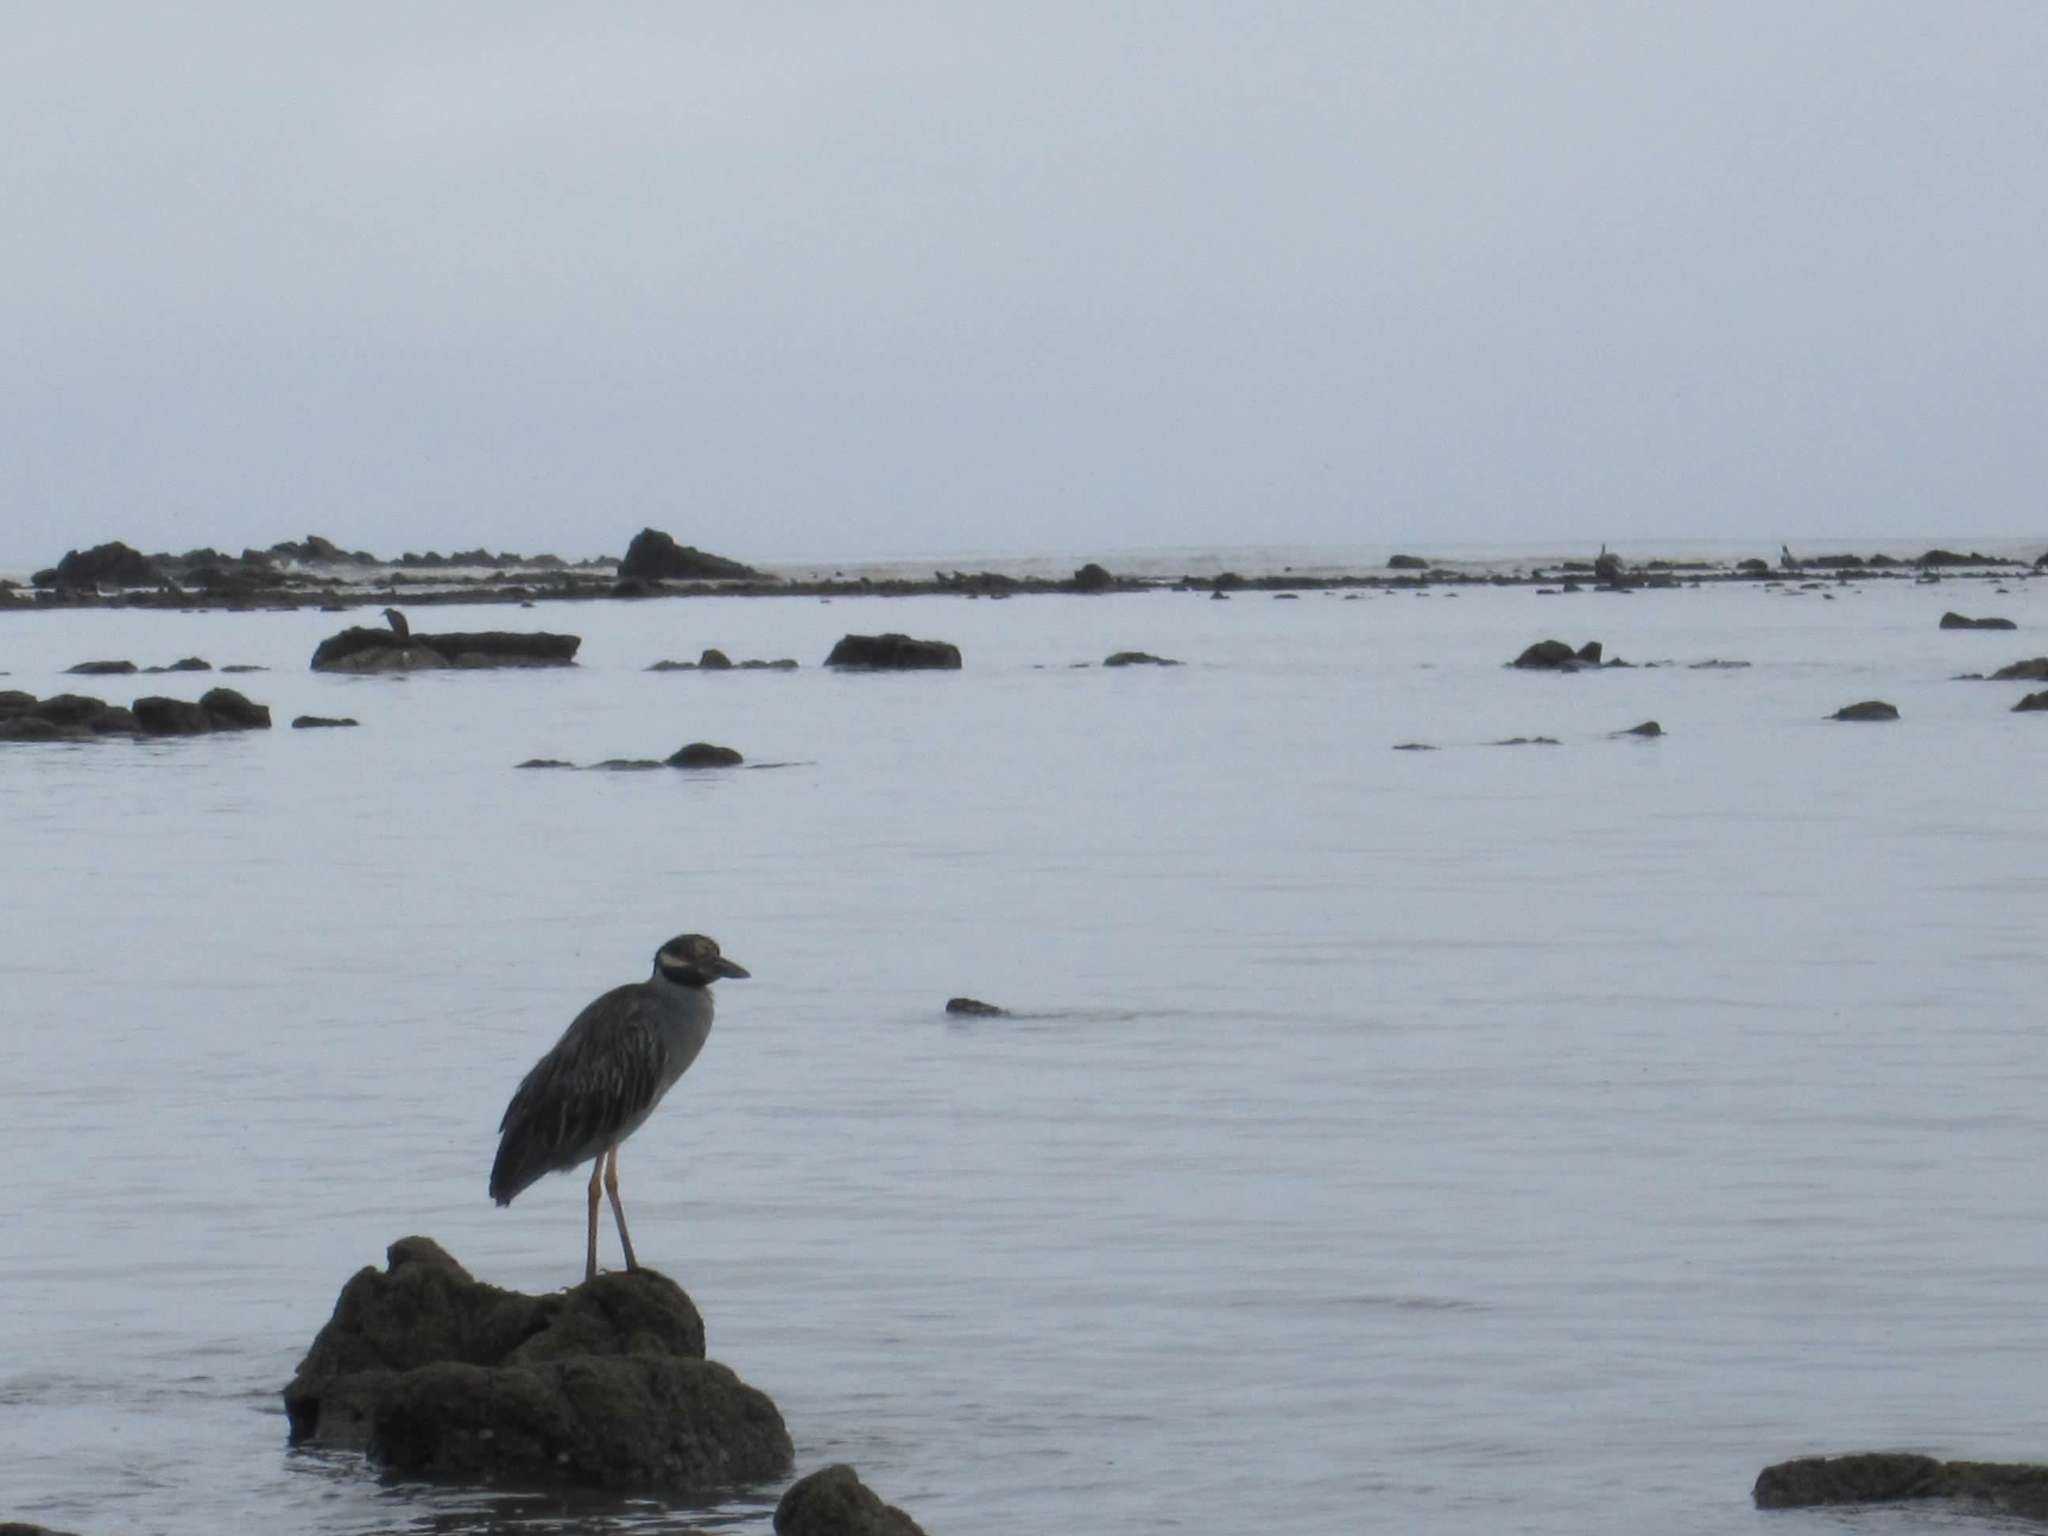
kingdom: Animalia
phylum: Chordata
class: Aves
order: Pelecaniformes
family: Ardeidae
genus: Nyctanassa
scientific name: Nyctanassa violacea
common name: Yellow-crowned night heron
